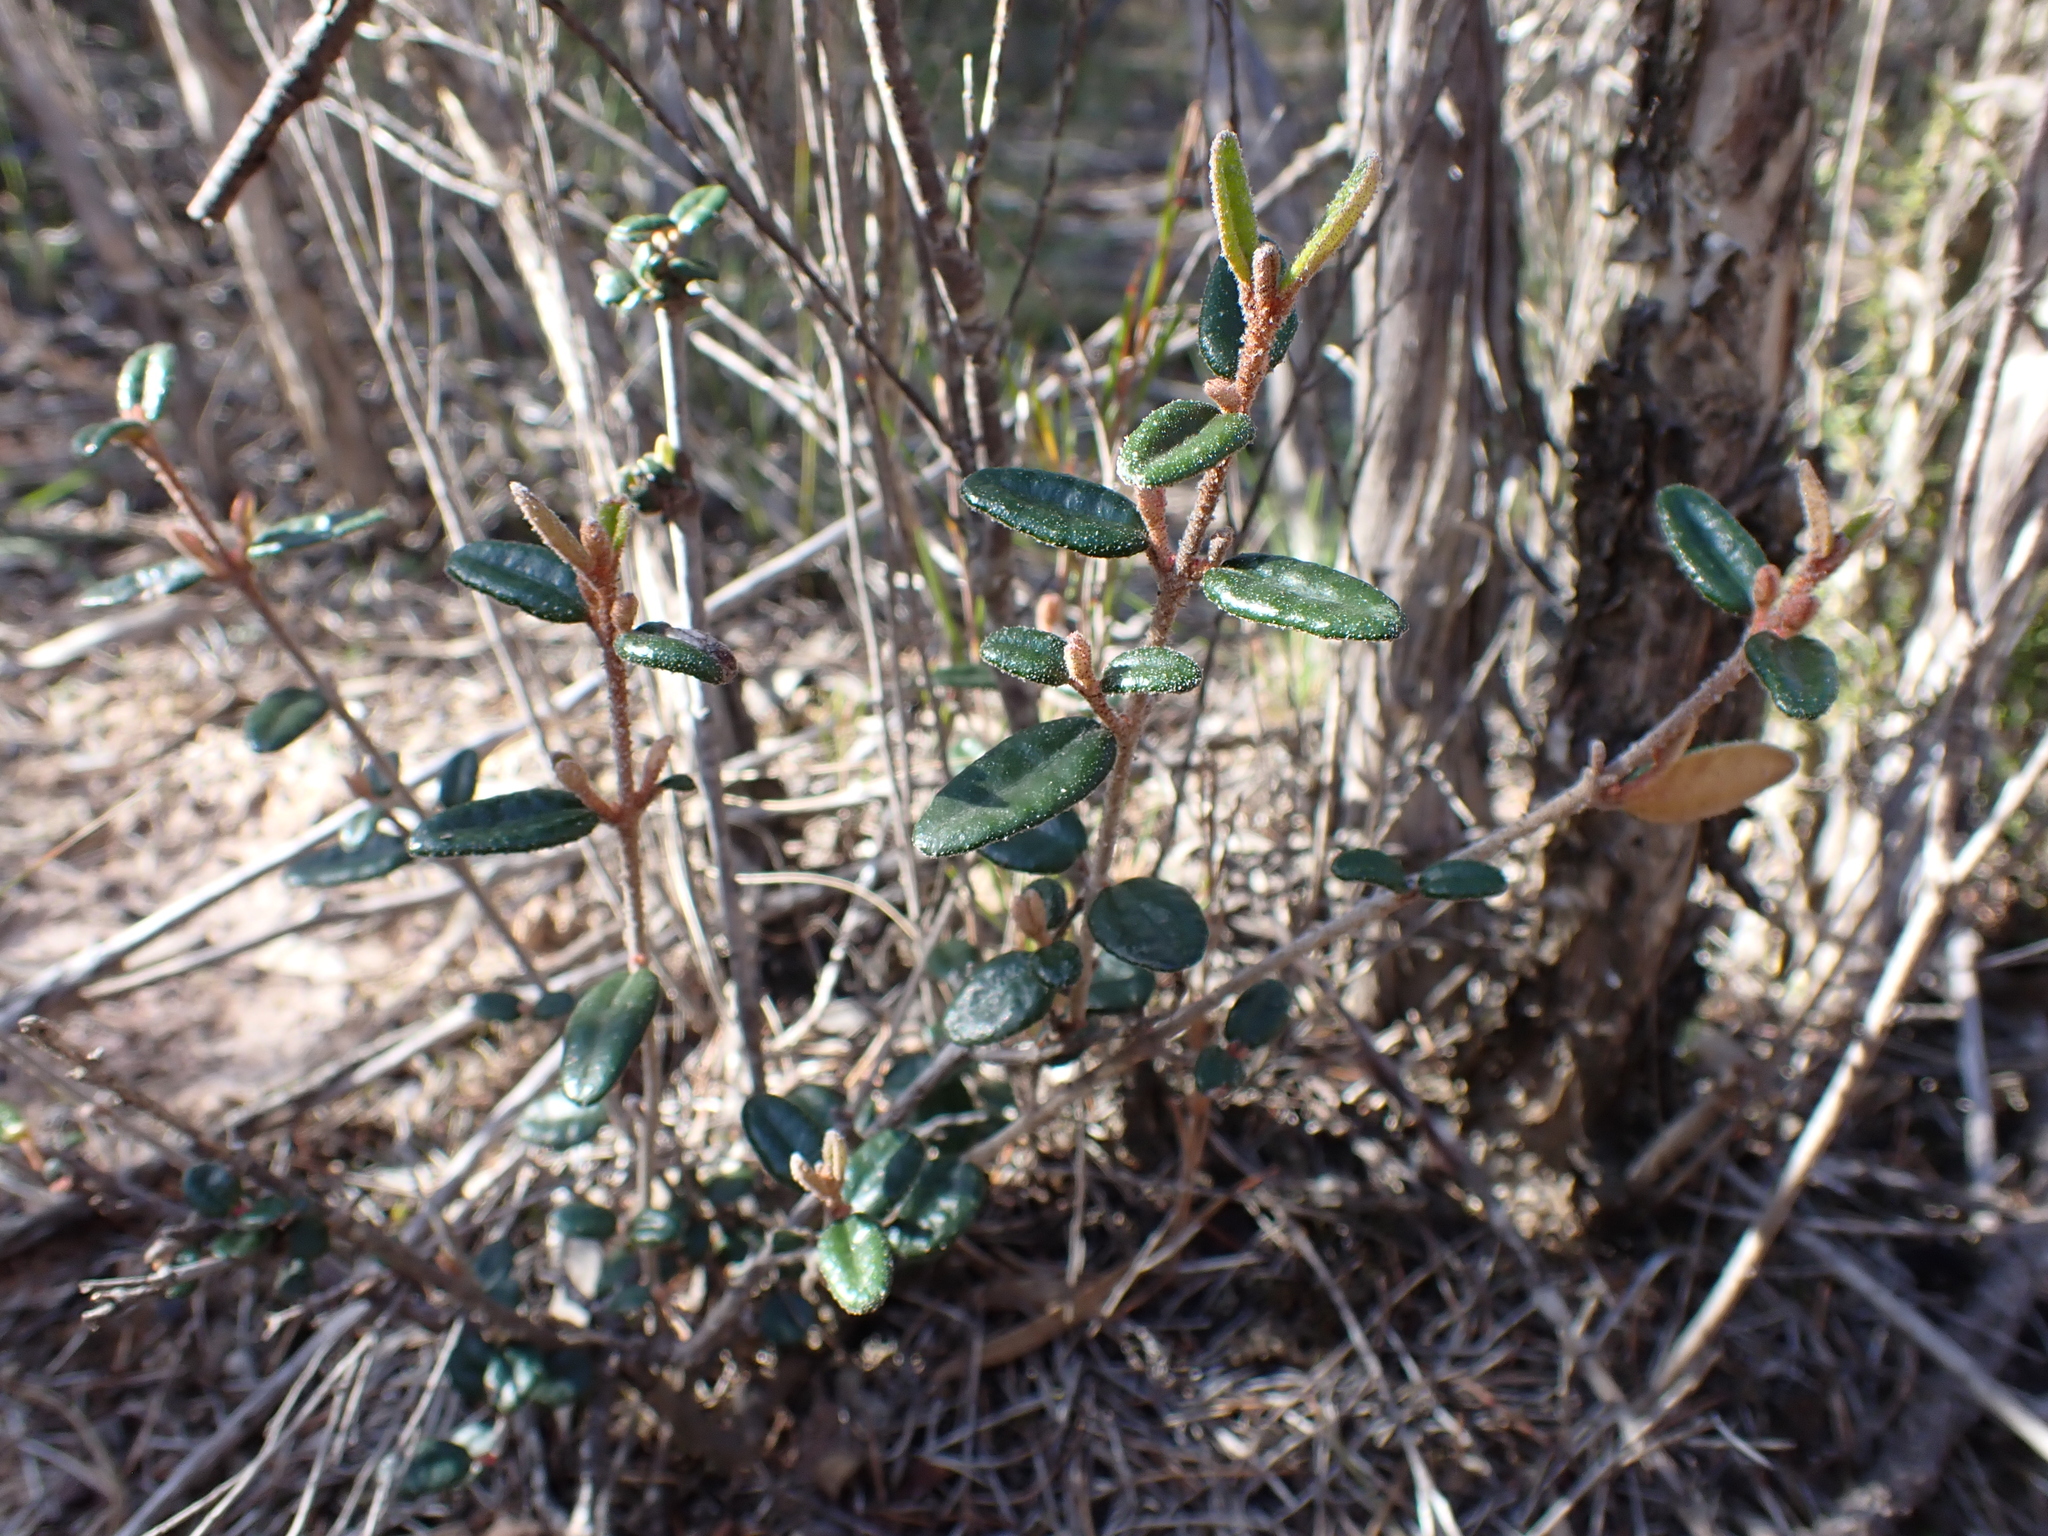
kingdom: Plantae
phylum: Tracheophyta
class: Magnoliopsida
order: Sapindales
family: Rutaceae
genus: Correa
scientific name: Correa reflexa
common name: Common correa
